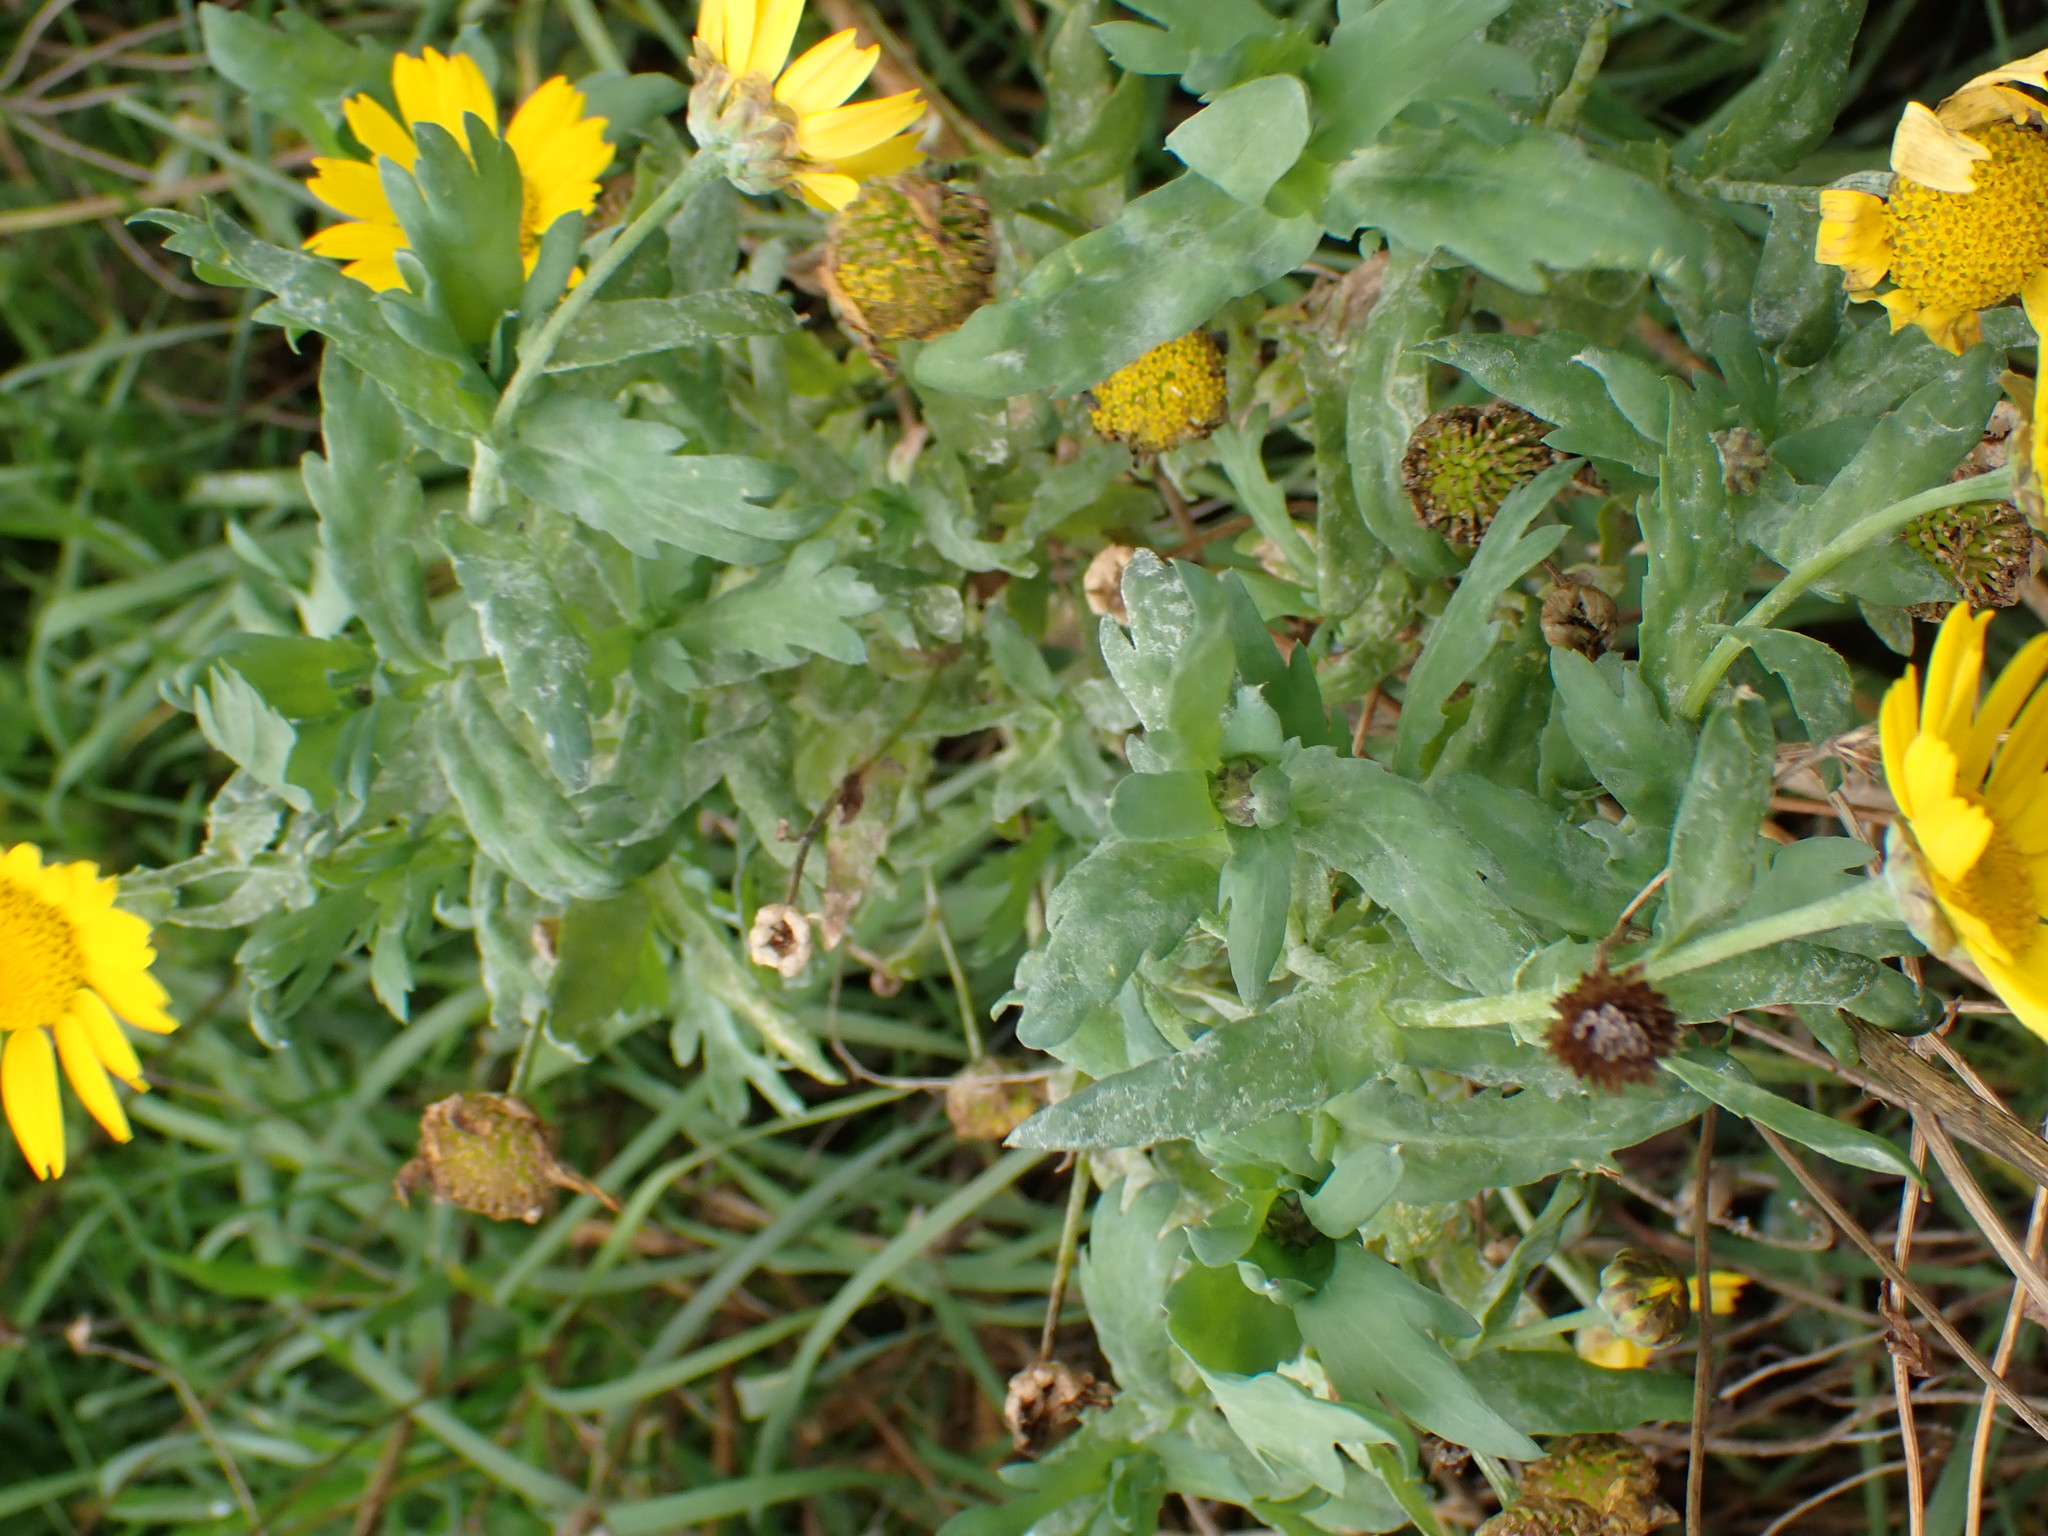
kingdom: Plantae
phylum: Tracheophyta
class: Magnoliopsida
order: Asterales
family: Asteraceae
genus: Glebionis
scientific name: Glebionis segetum
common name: Corndaisy
